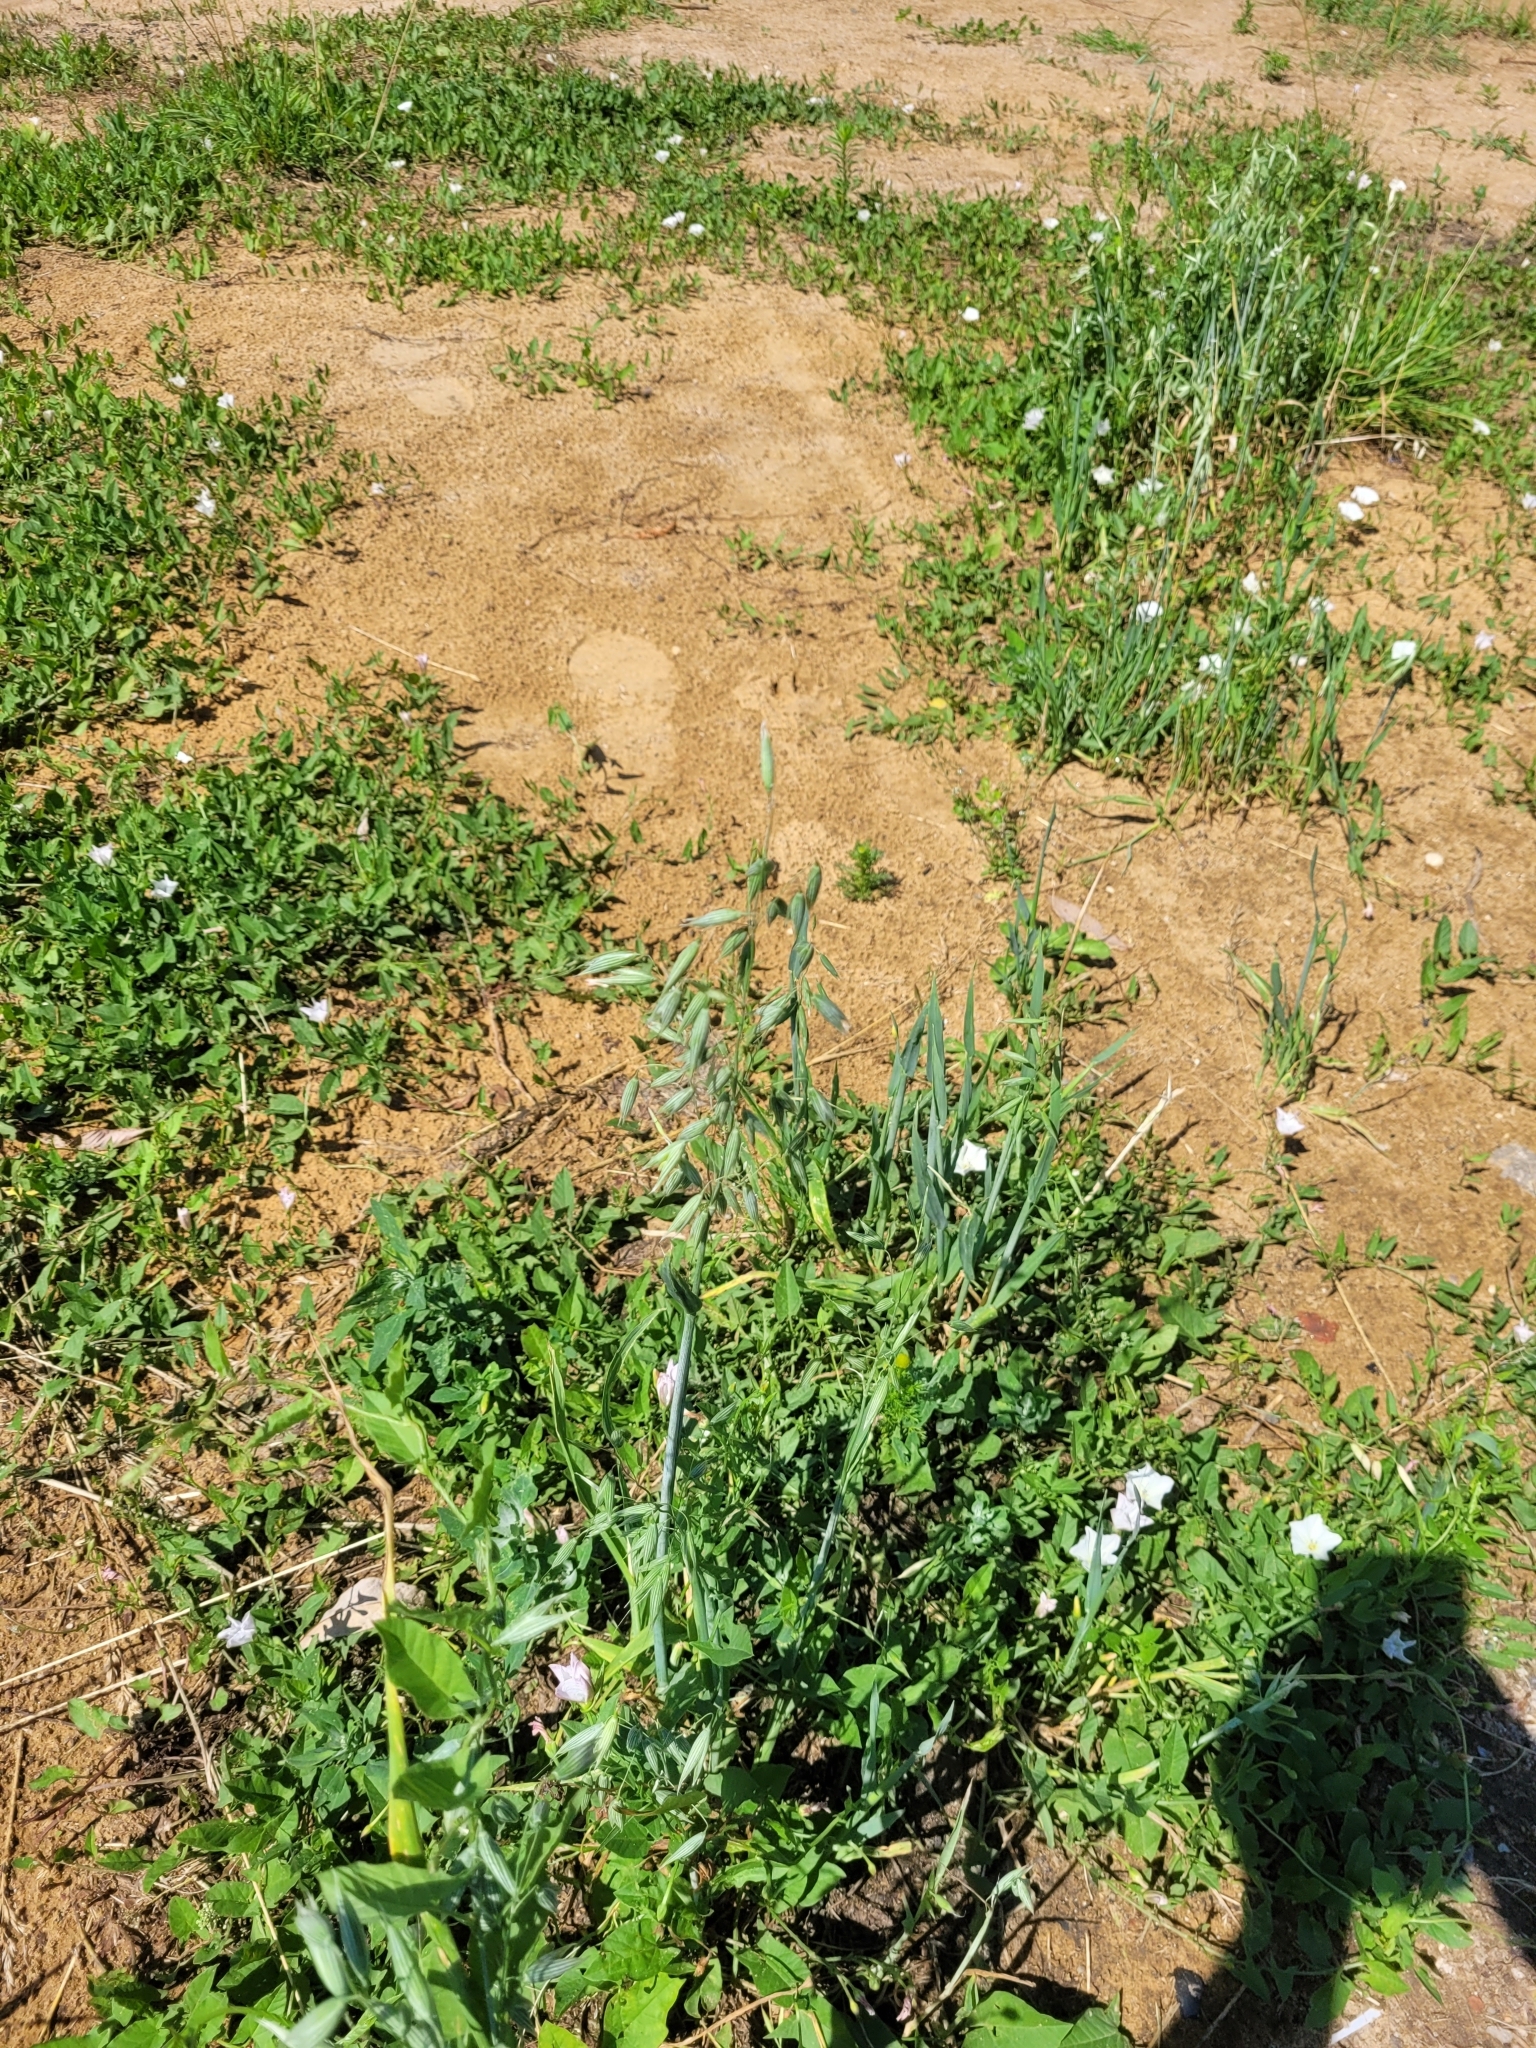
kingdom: Plantae
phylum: Tracheophyta
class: Liliopsida
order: Poales
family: Poaceae
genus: Avena
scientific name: Avena sativa
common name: Oat
